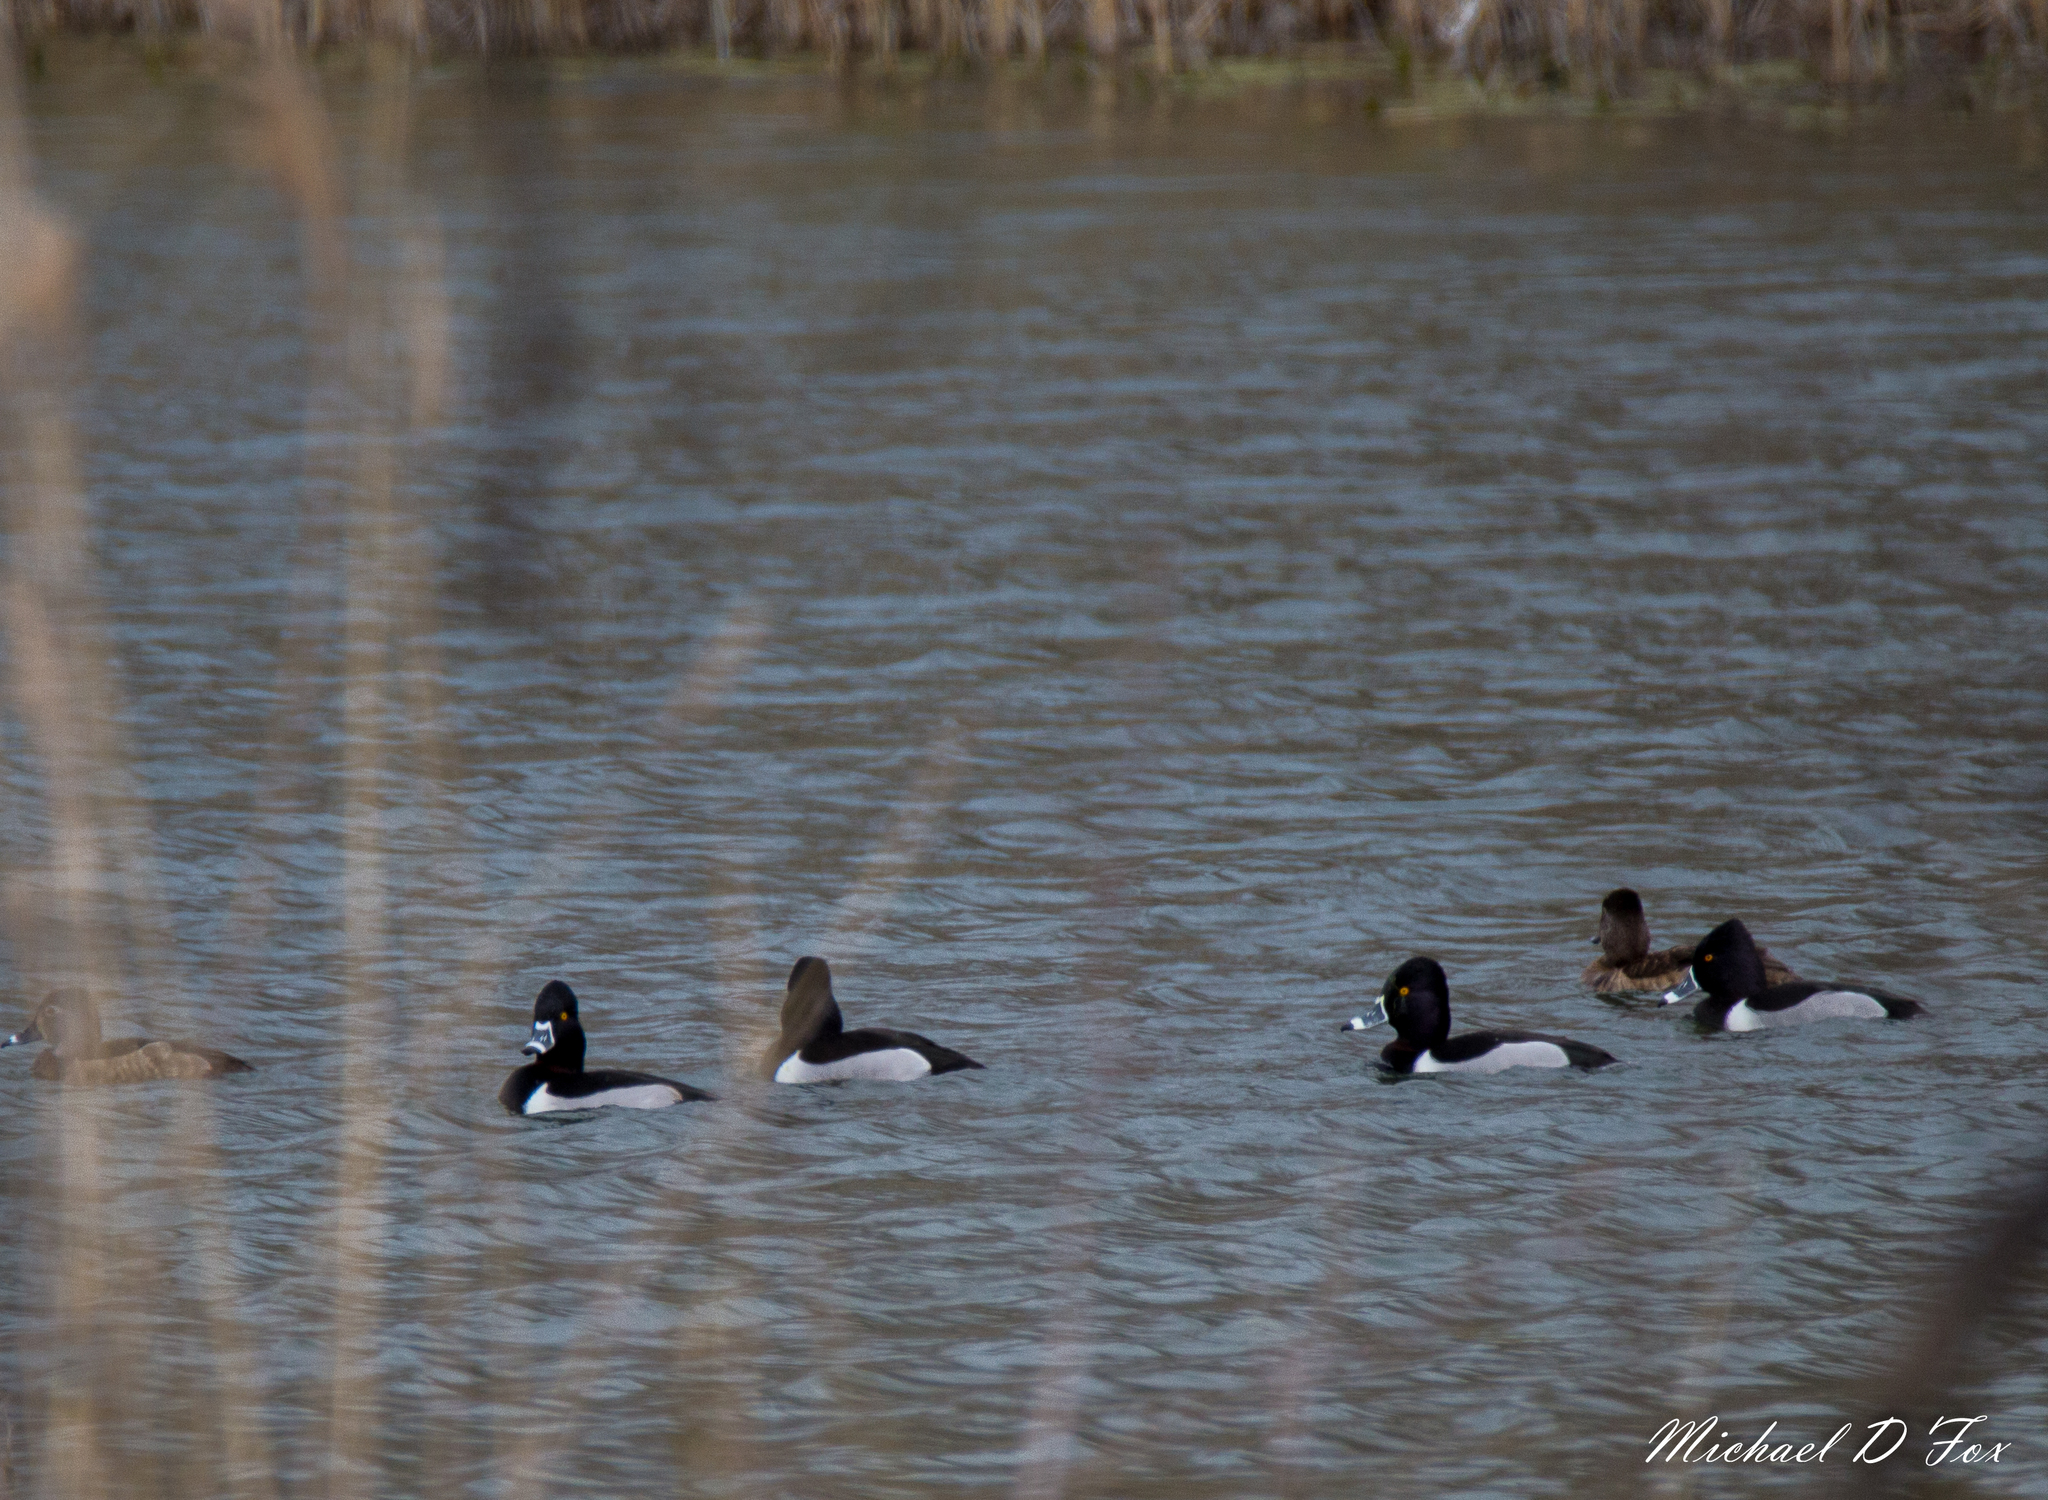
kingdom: Animalia
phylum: Chordata
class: Aves
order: Anseriformes
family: Anatidae
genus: Aythya
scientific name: Aythya collaris
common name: Ring-necked duck
